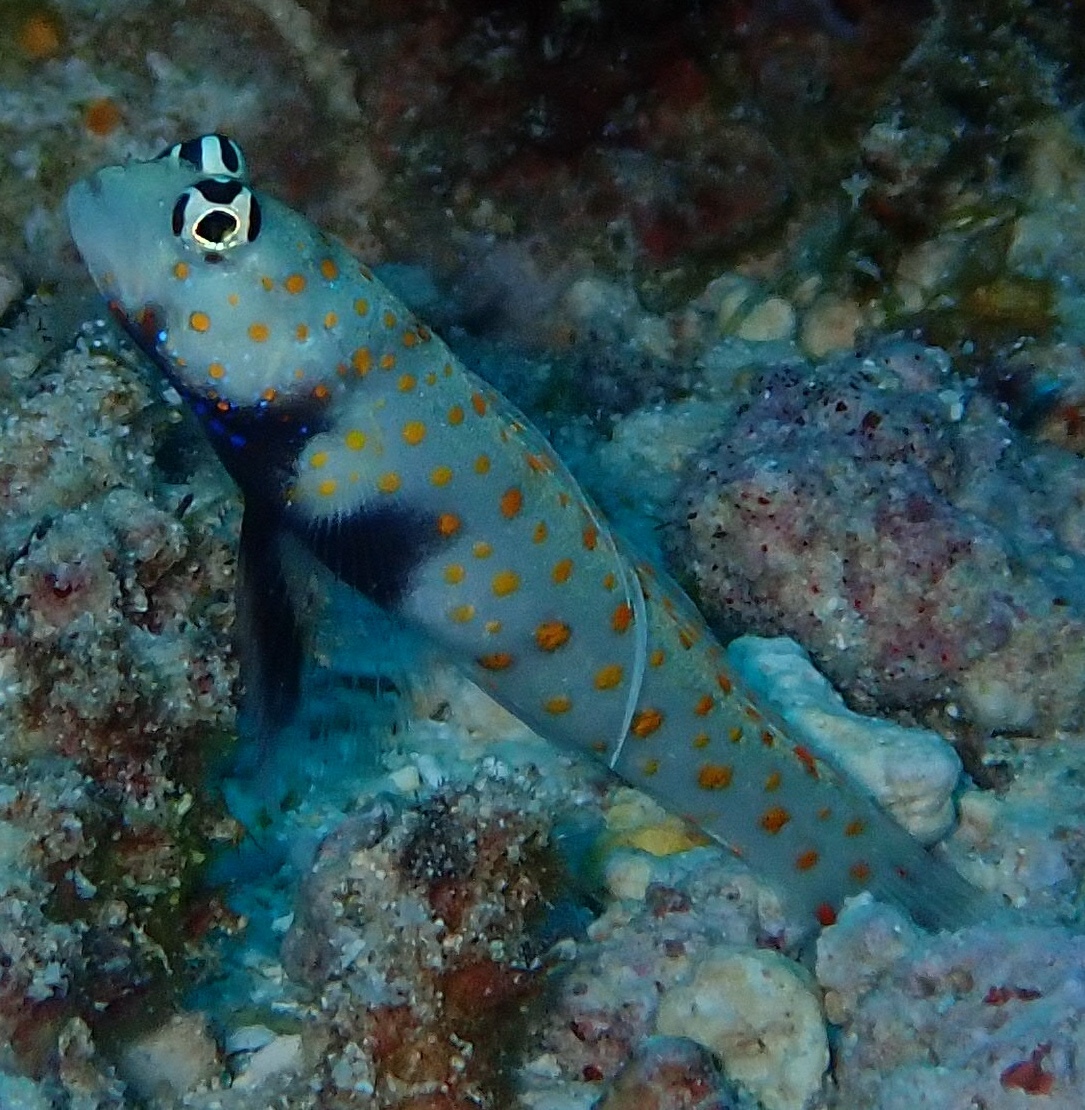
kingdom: Animalia
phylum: Chordata
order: Perciformes
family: Gobiidae
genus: Amblyeleotris
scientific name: Amblyeleotris guttata
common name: Black-chest shrimp-goby
